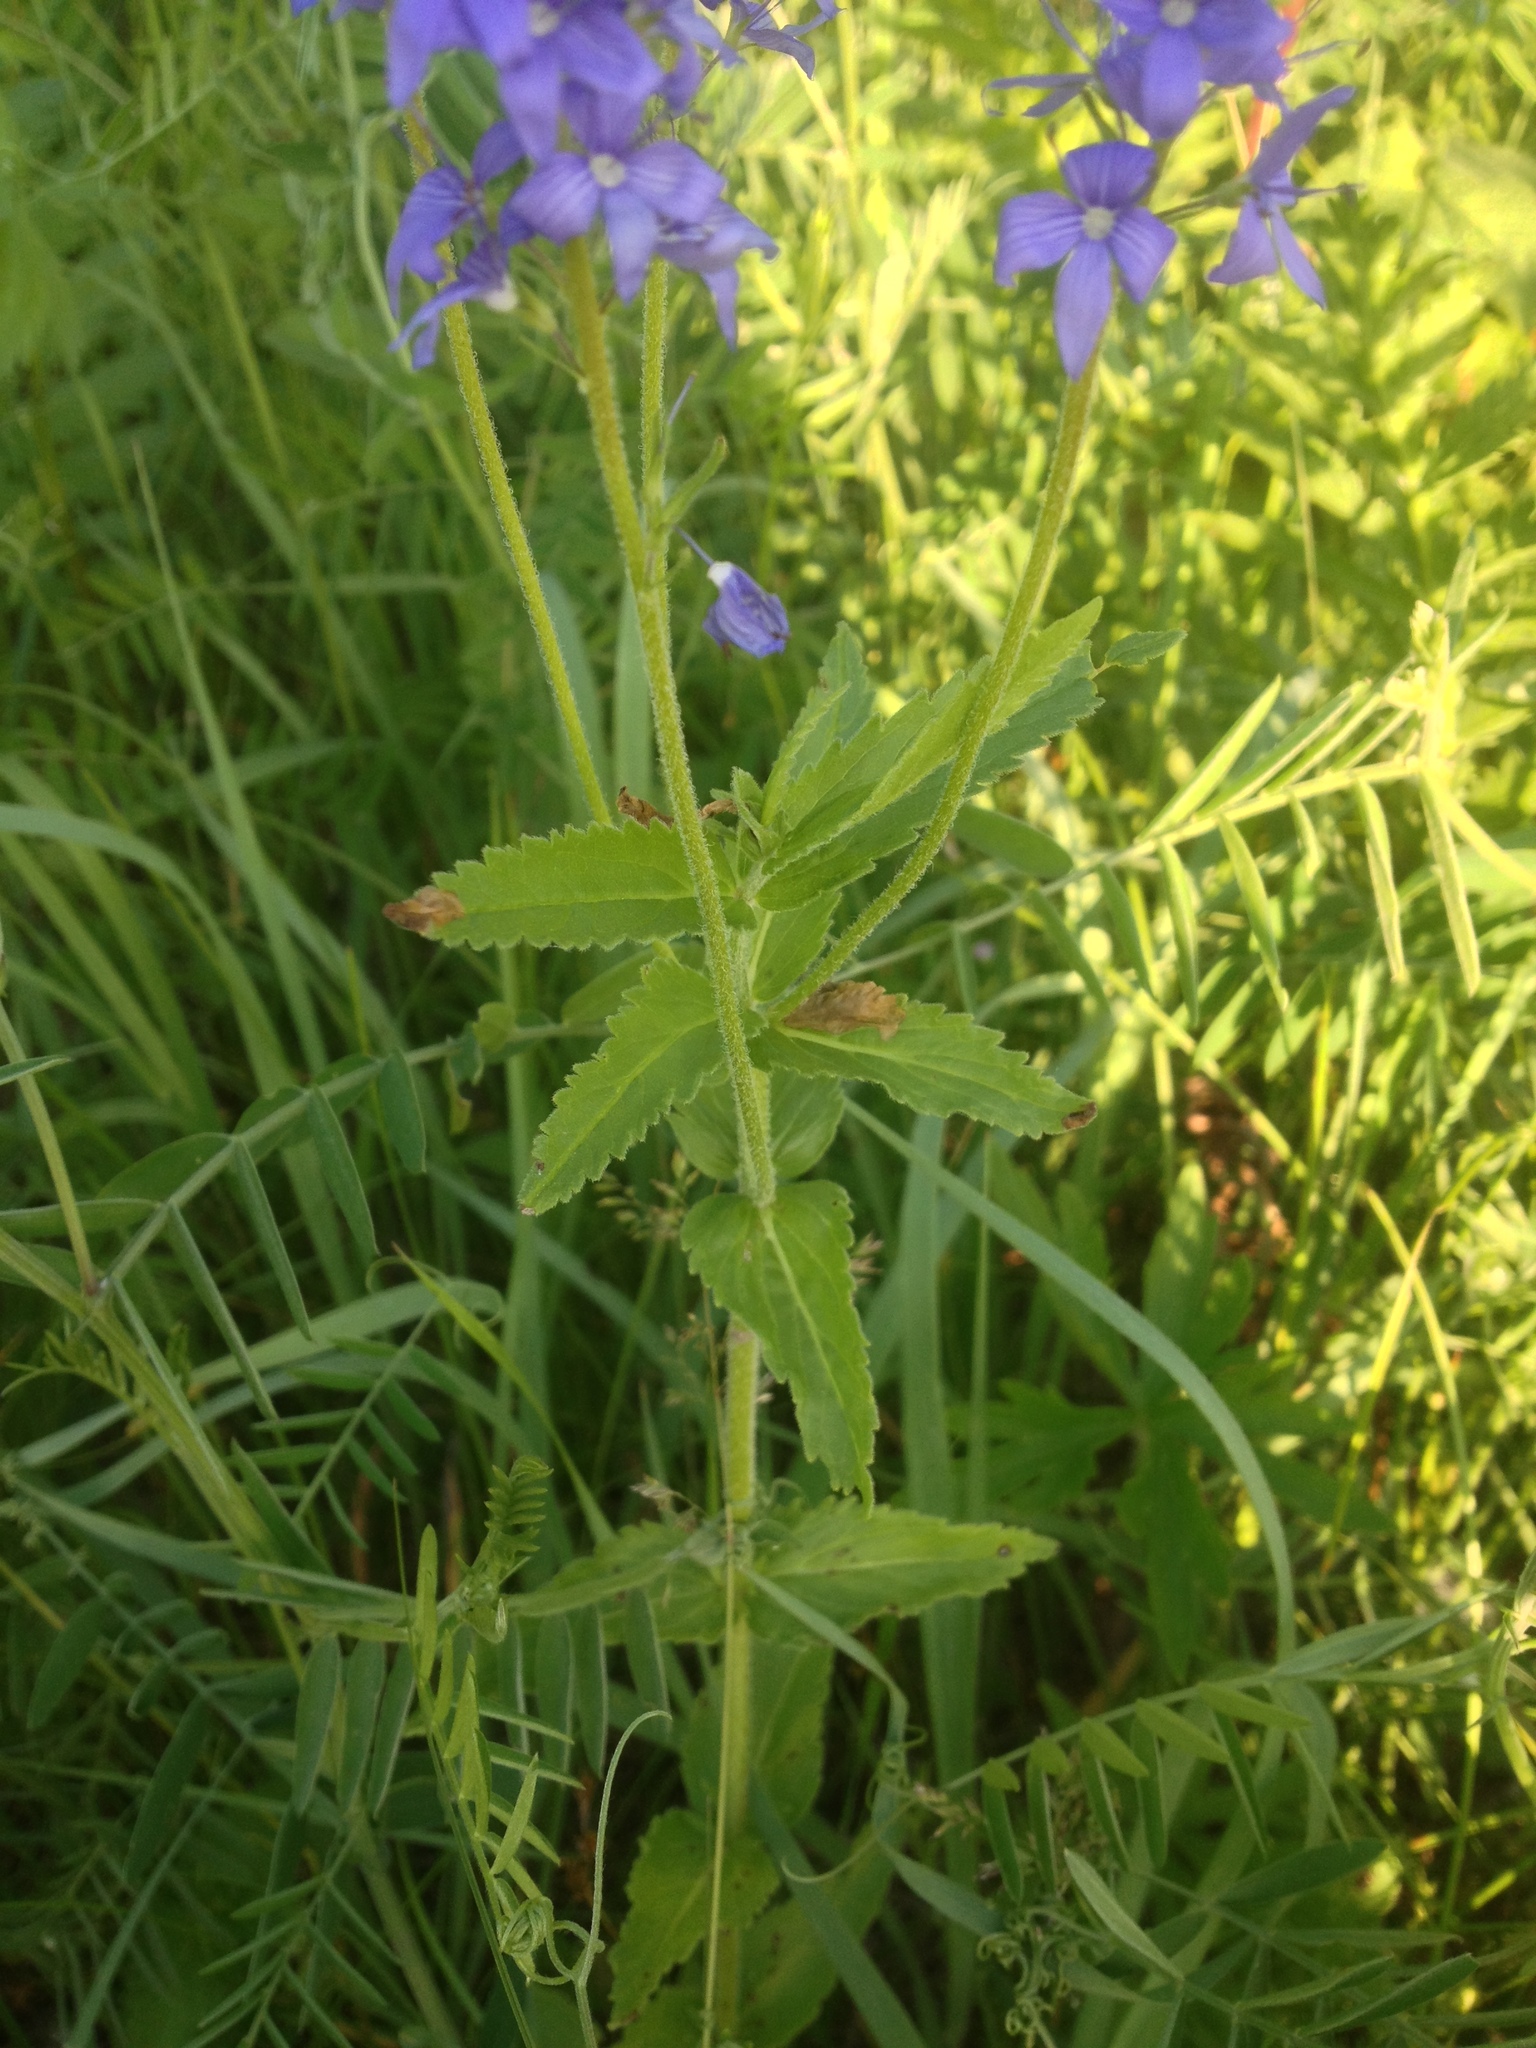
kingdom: Plantae
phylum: Tracheophyta
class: Magnoliopsida
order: Lamiales
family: Plantaginaceae
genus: Veronica
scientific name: Veronica teucrium
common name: Large speedwell
